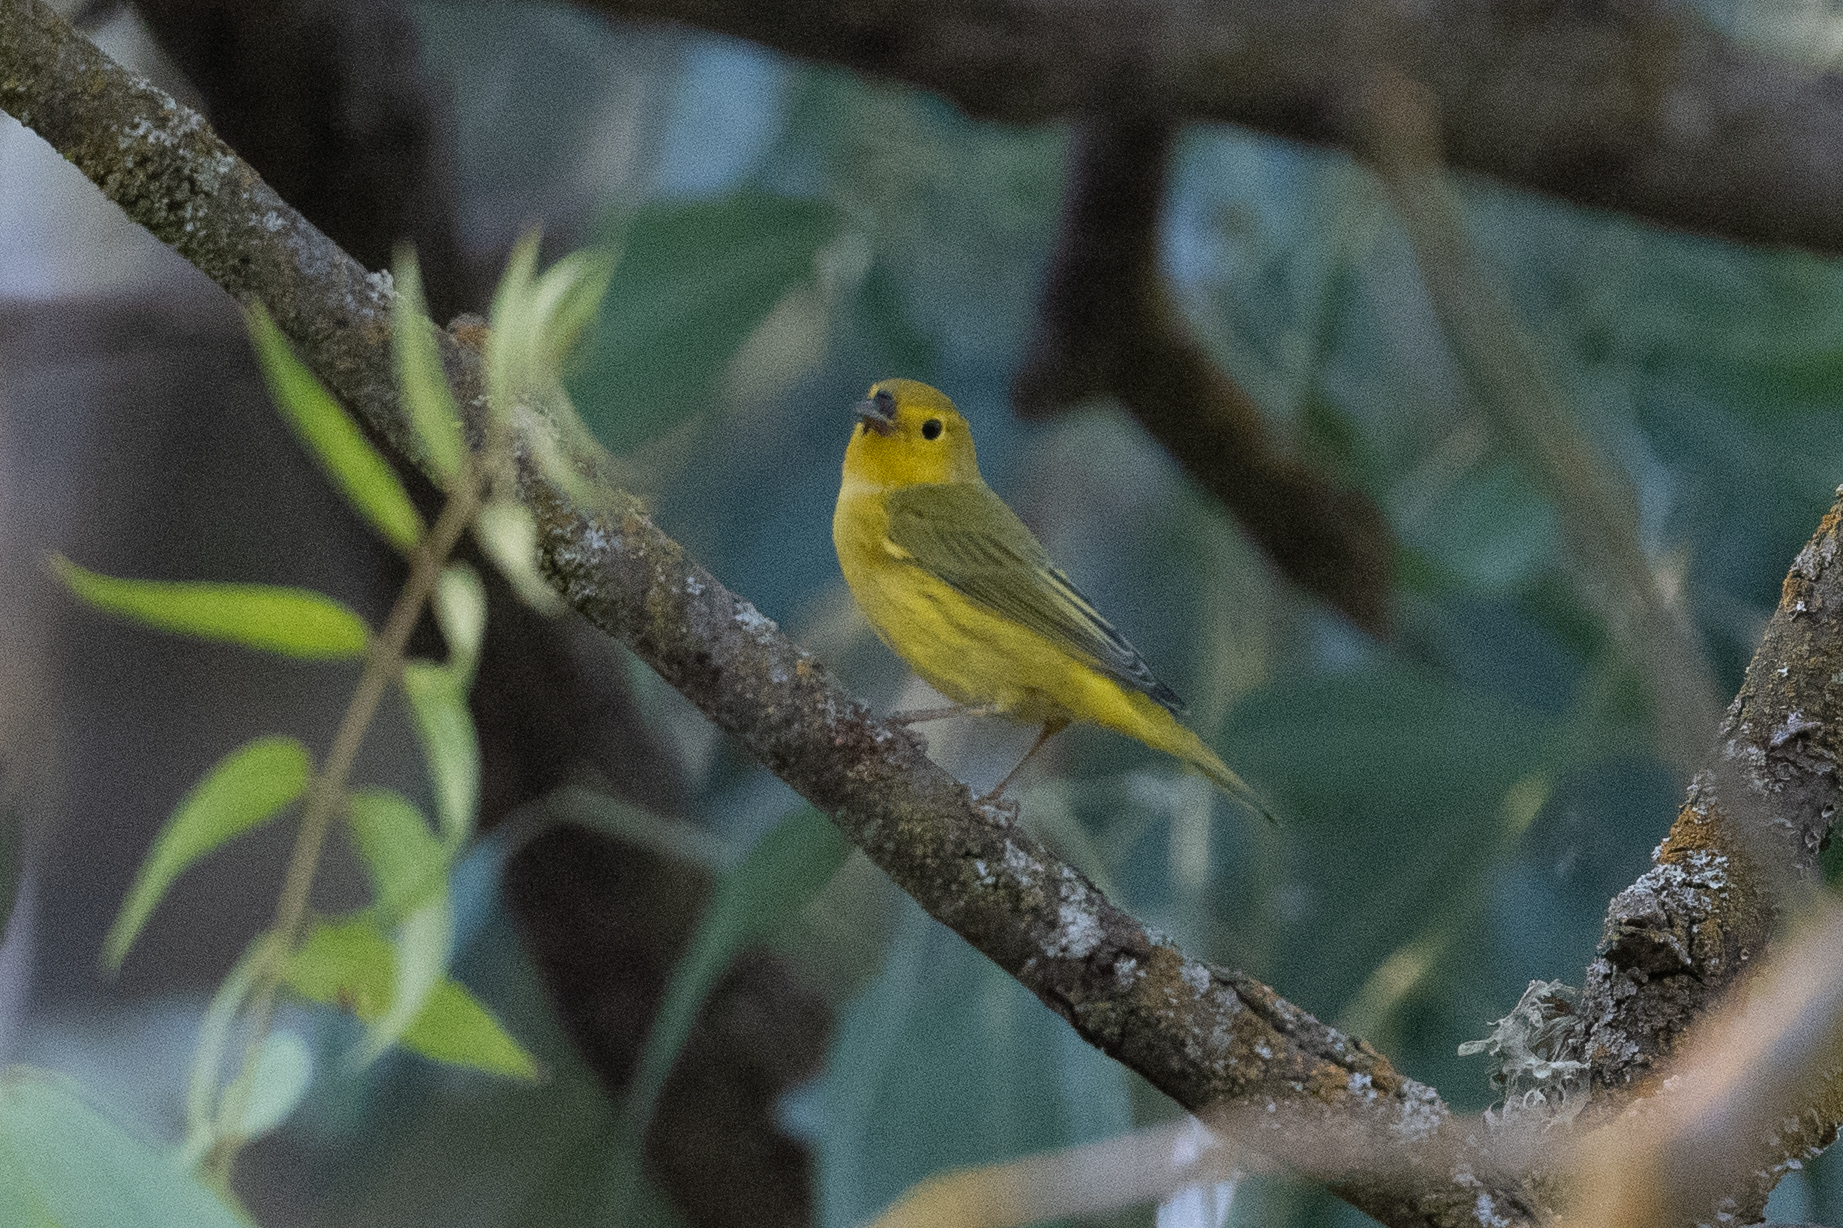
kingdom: Animalia
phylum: Chordata
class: Aves
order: Passeriformes
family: Parulidae
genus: Setophaga
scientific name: Setophaga petechia
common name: Yellow warbler
